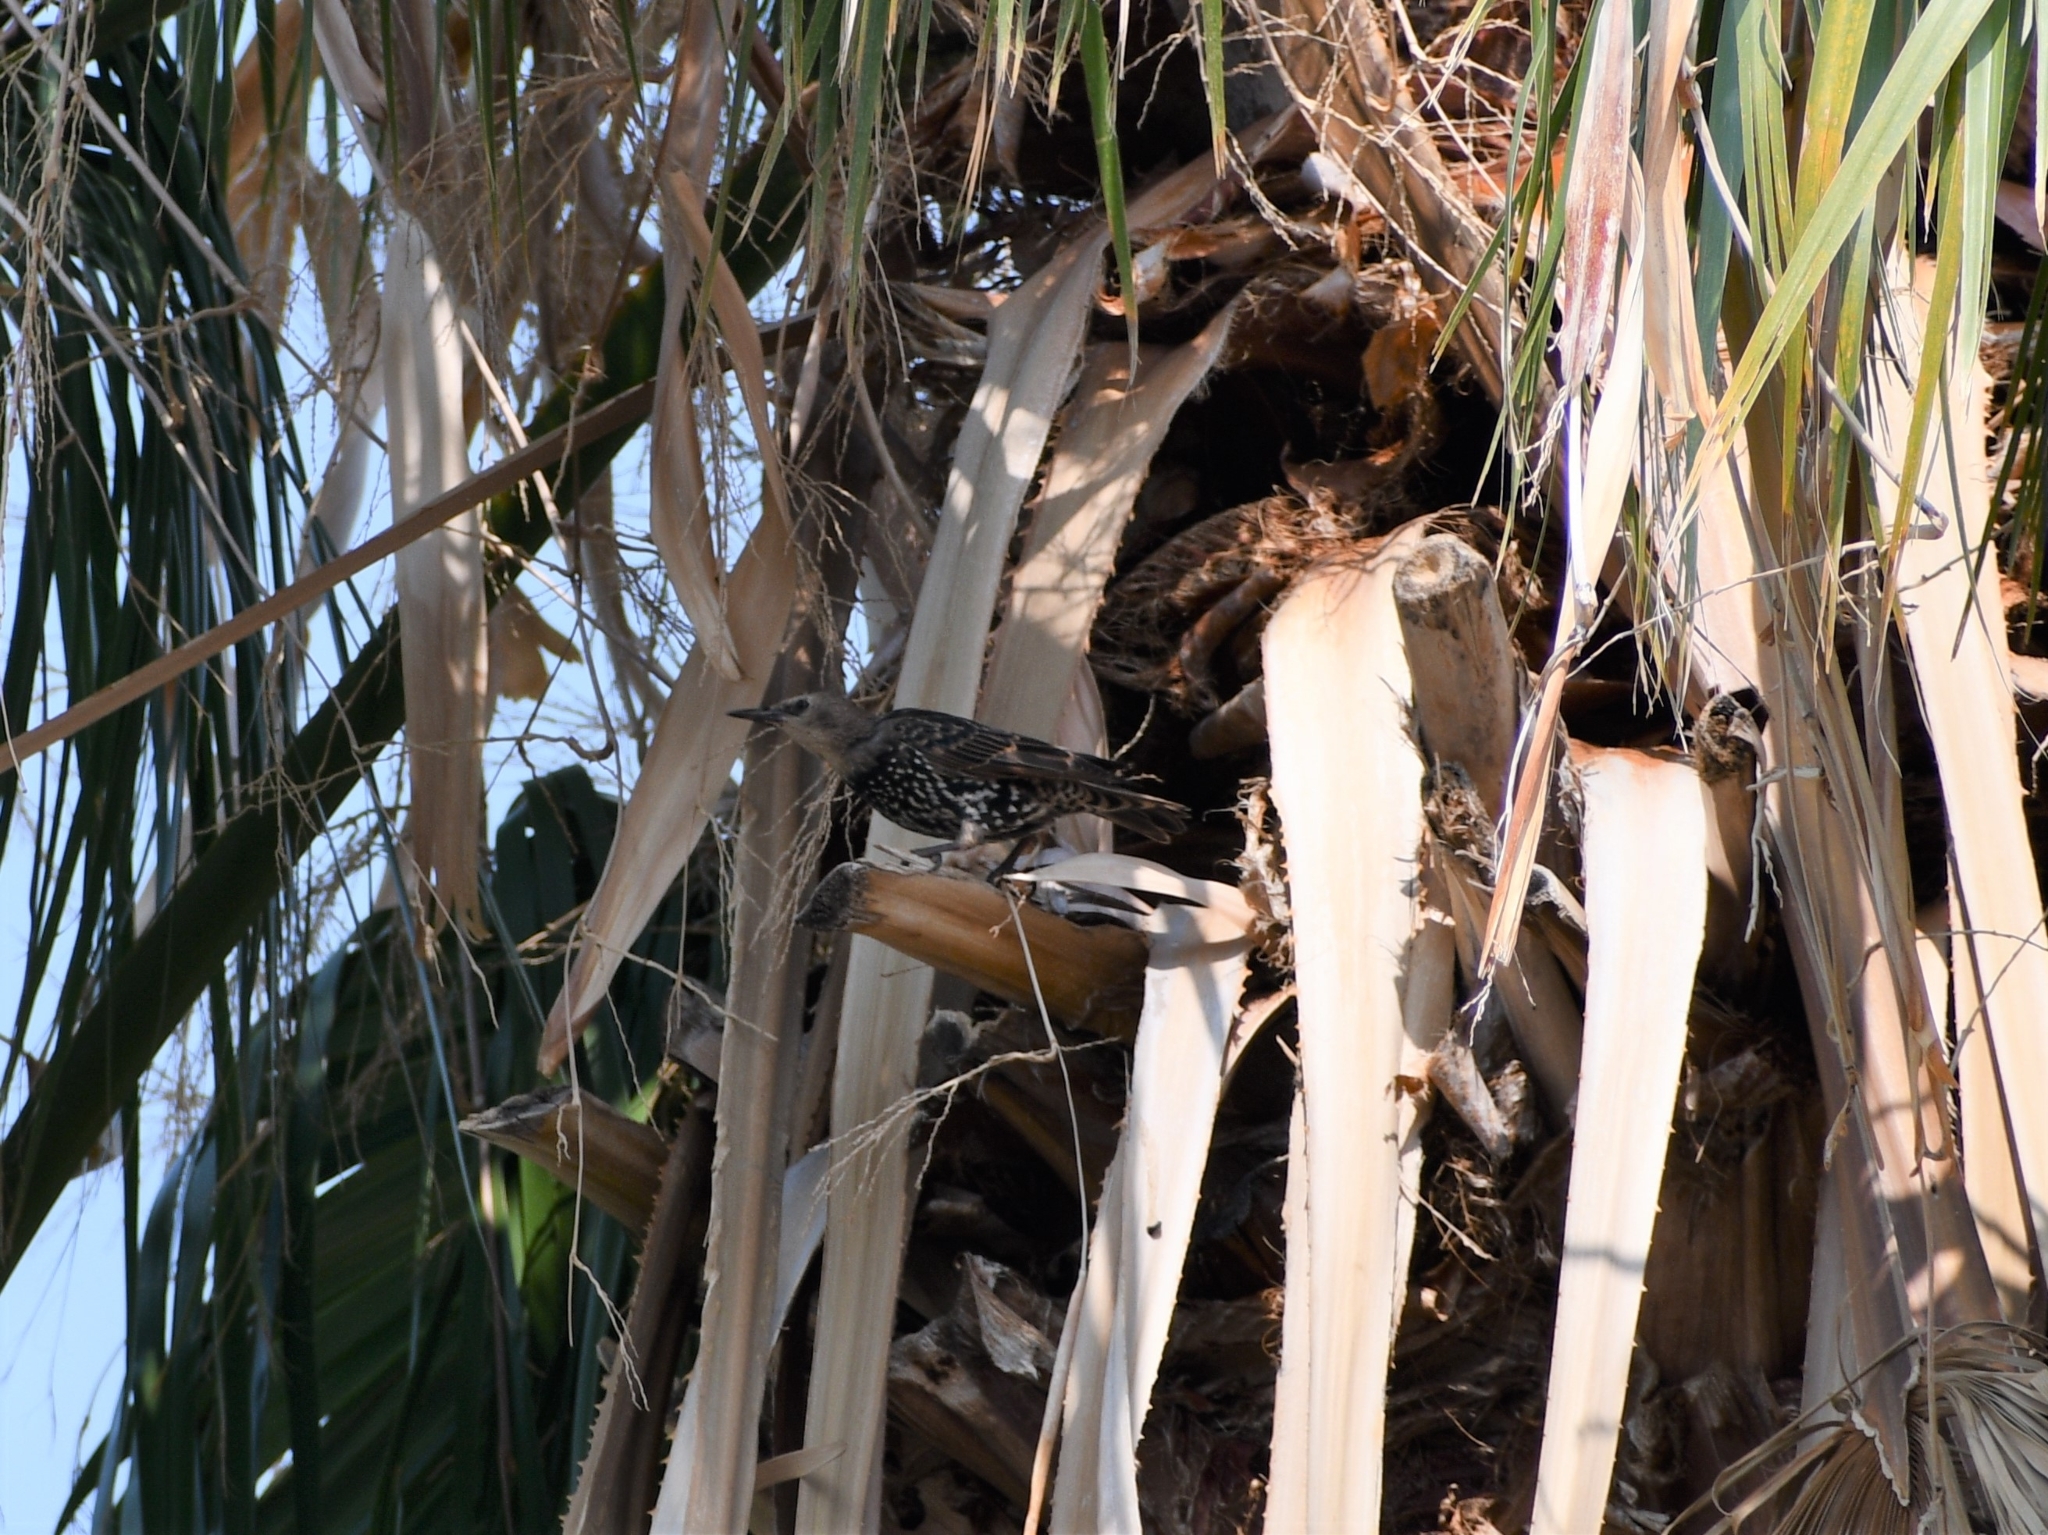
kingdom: Animalia
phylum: Chordata
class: Aves
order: Passeriformes
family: Sturnidae
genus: Sturnus
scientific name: Sturnus vulgaris
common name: Common starling
